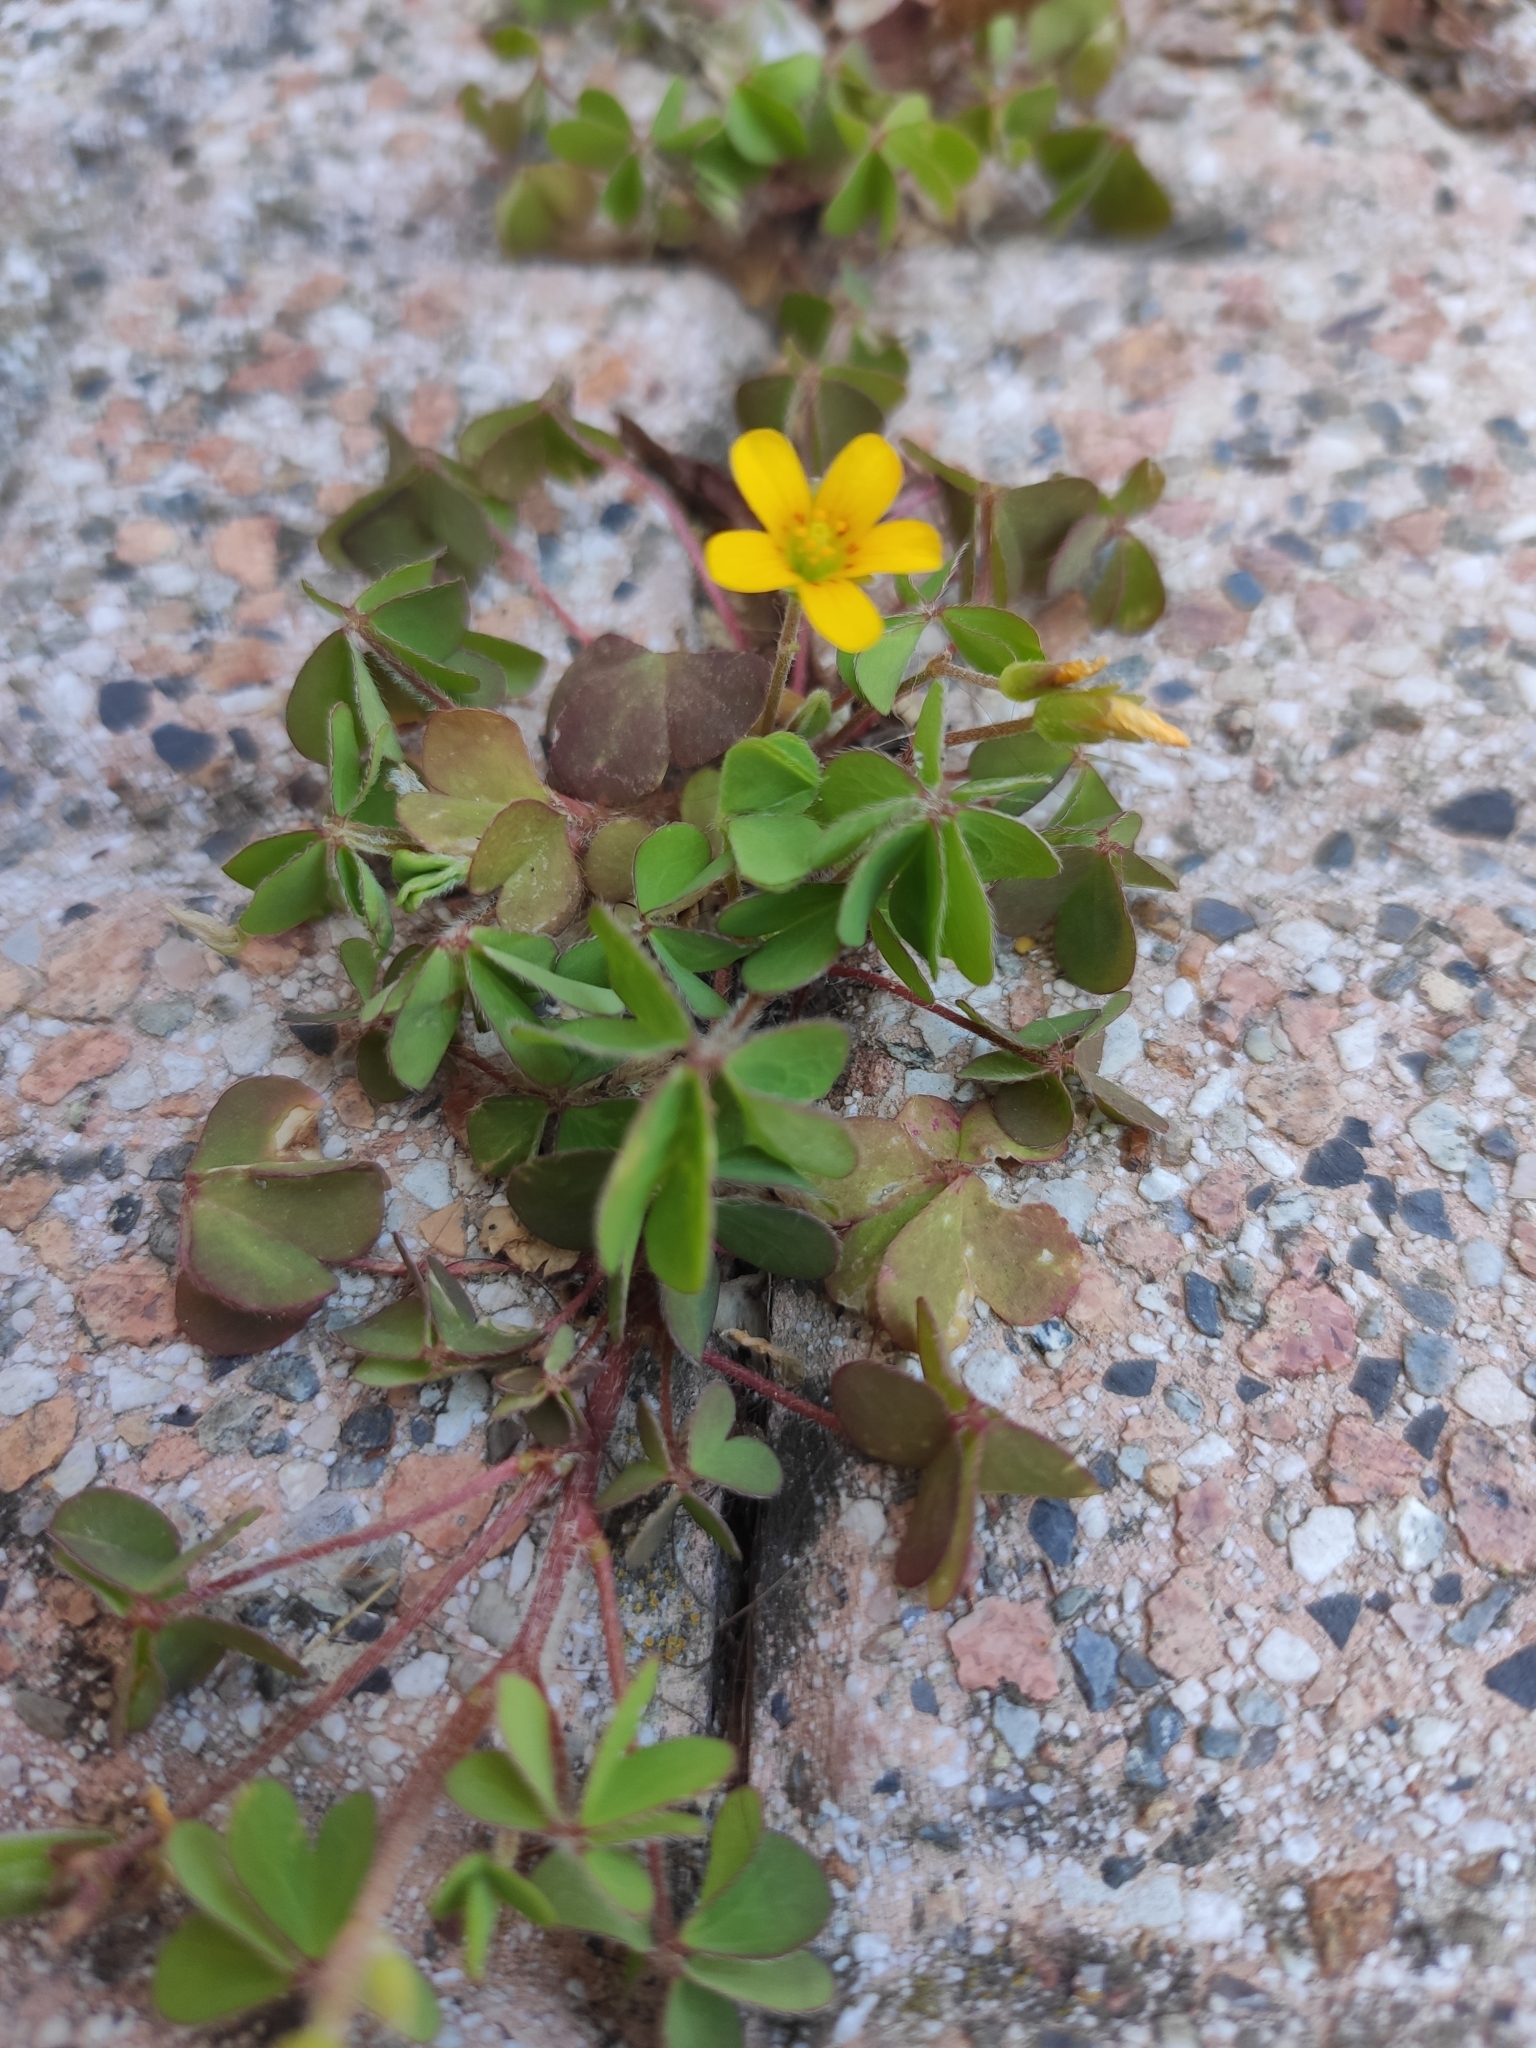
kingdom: Plantae
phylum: Tracheophyta
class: Magnoliopsida
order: Oxalidales
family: Oxalidaceae
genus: Oxalis
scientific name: Oxalis corniculata
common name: Procumbent yellow-sorrel
